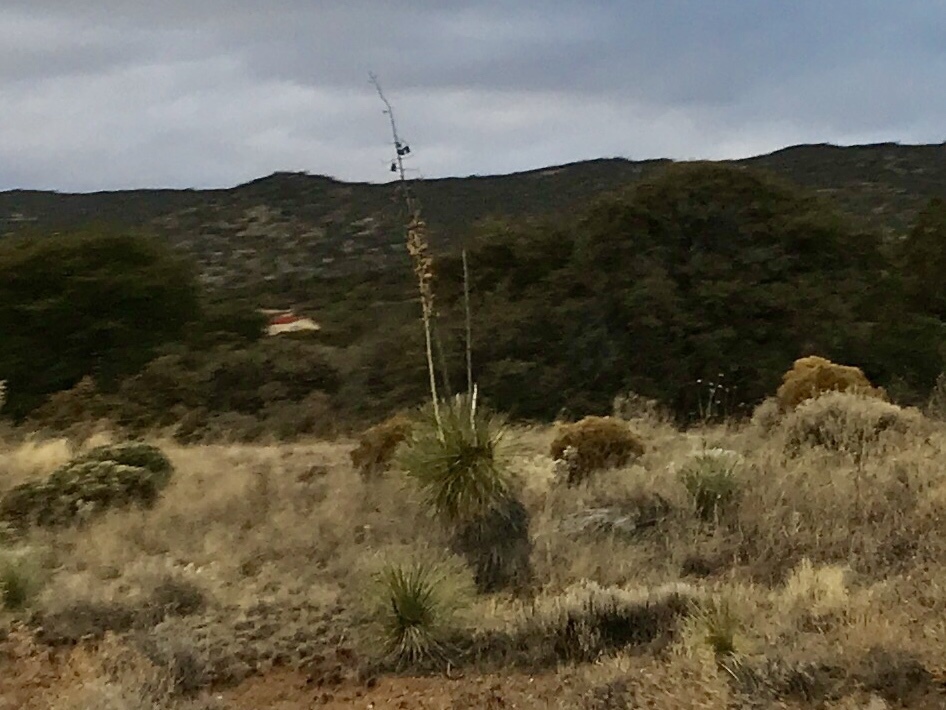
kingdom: Plantae
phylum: Tracheophyta
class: Liliopsida
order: Asparagales
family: Asparagaceae
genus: Yucca
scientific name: Yucca elata
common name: Palmella
